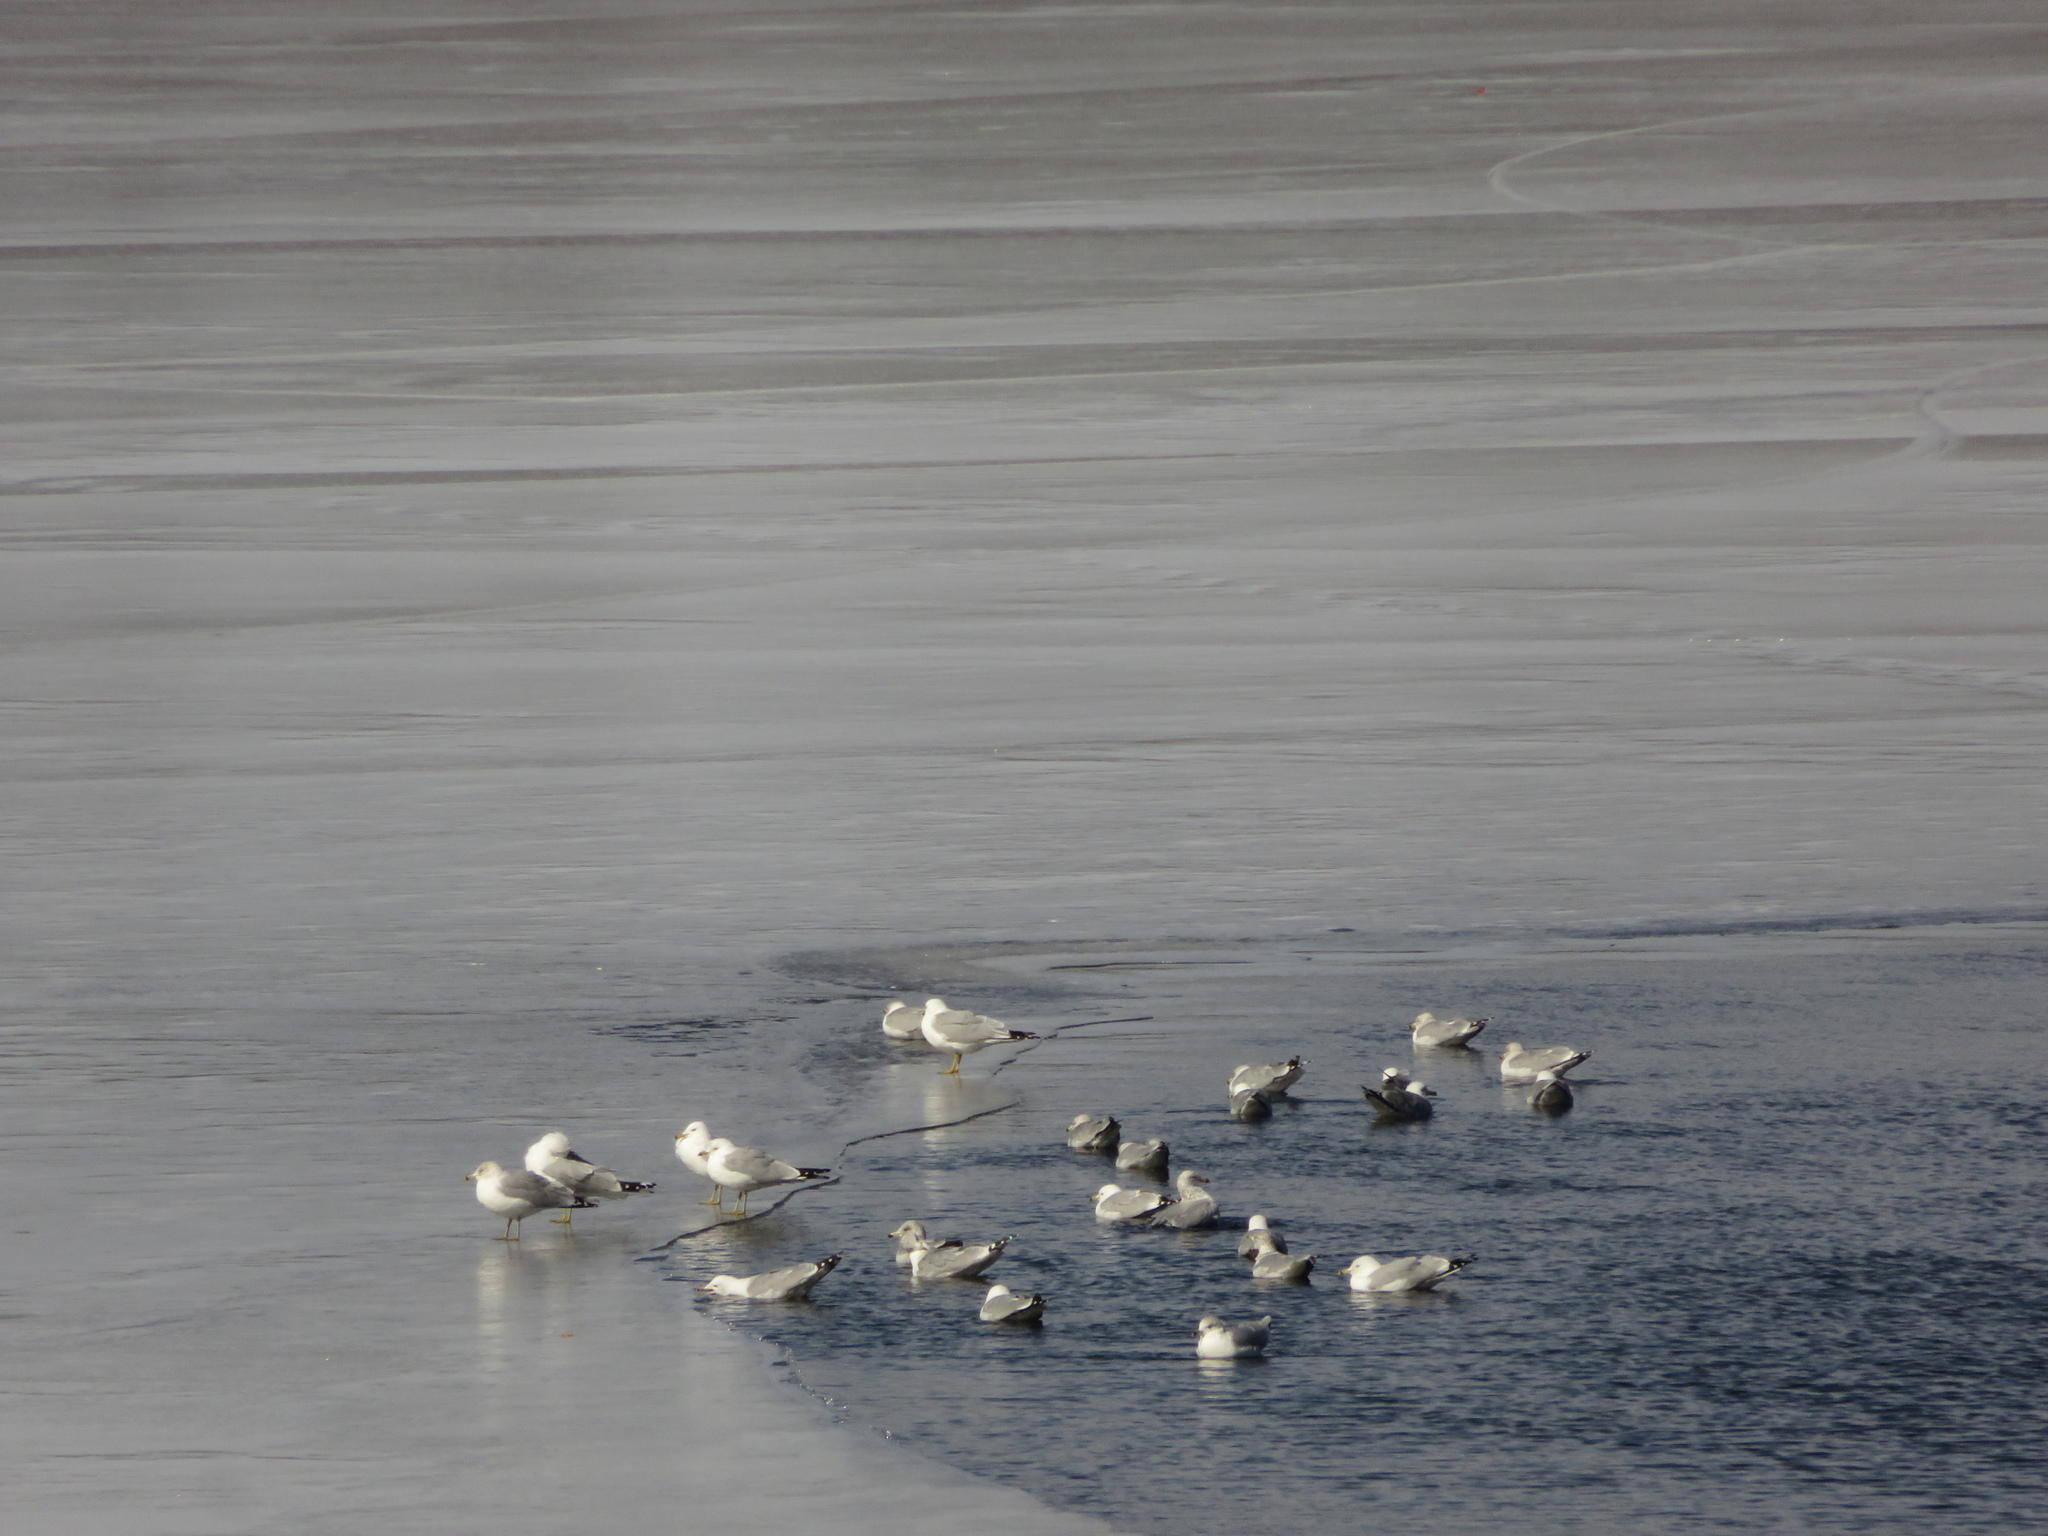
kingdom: Animalia
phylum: Chordata
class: Aves
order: Charadriiformes
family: Laridae
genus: Larus
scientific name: Larus delawarensis
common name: Ring-billed gull
